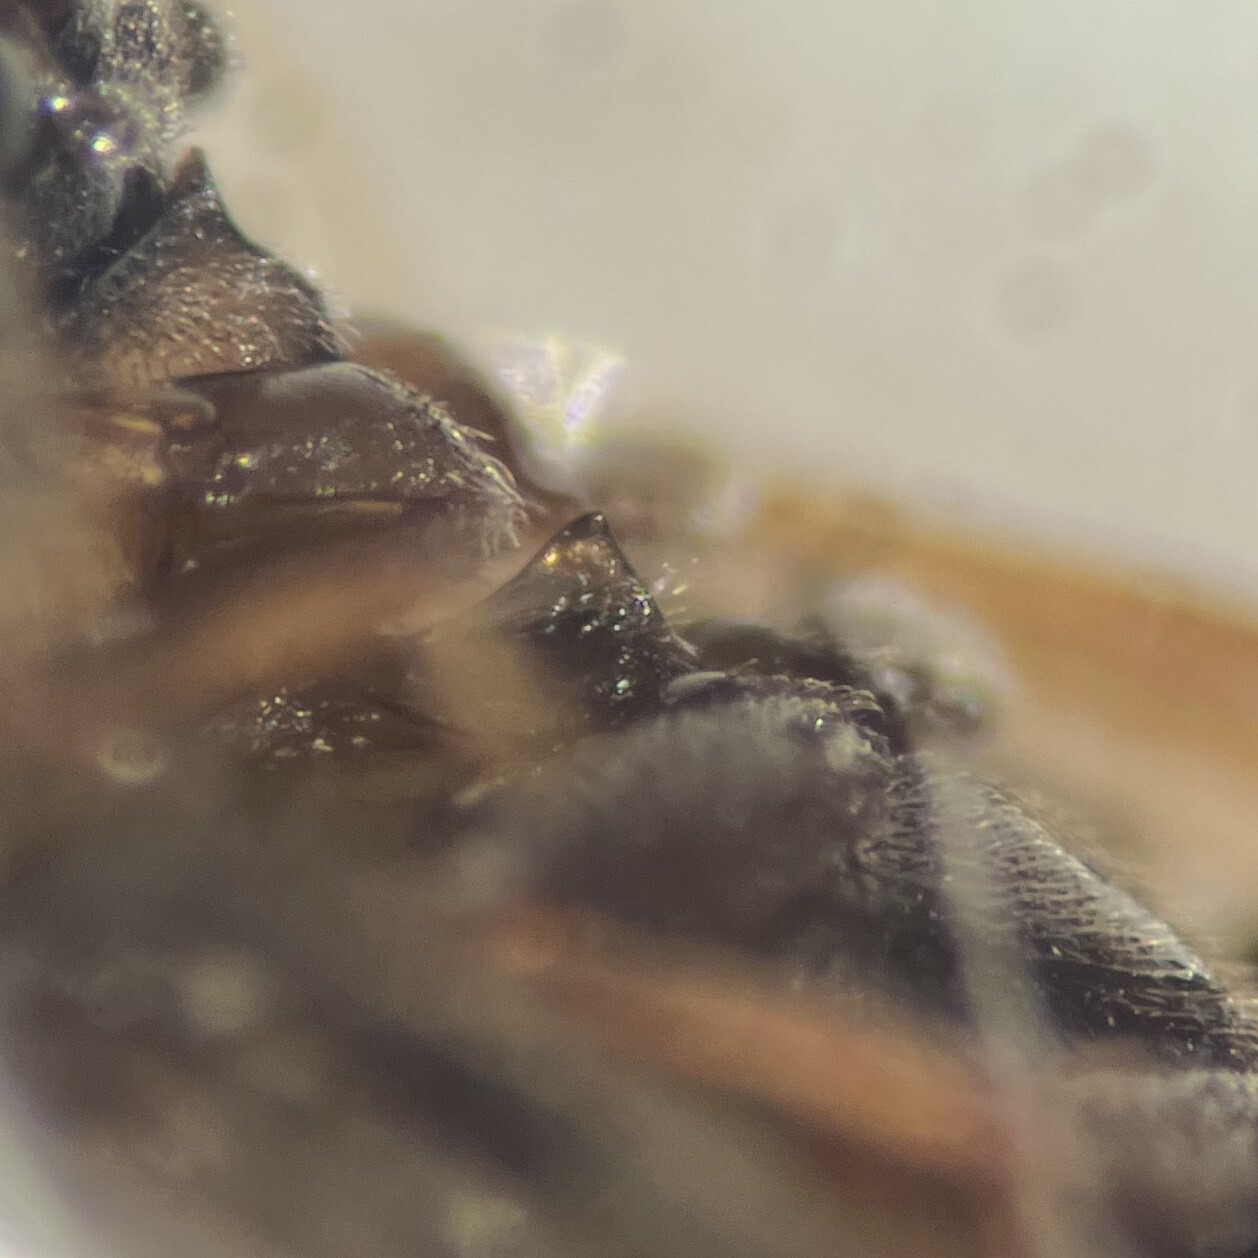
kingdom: Animalia
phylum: Arthropoda
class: Insecta
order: Coleoptera
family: Hydrophilidae
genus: Enochrus
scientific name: Enochrus pygmaeus
